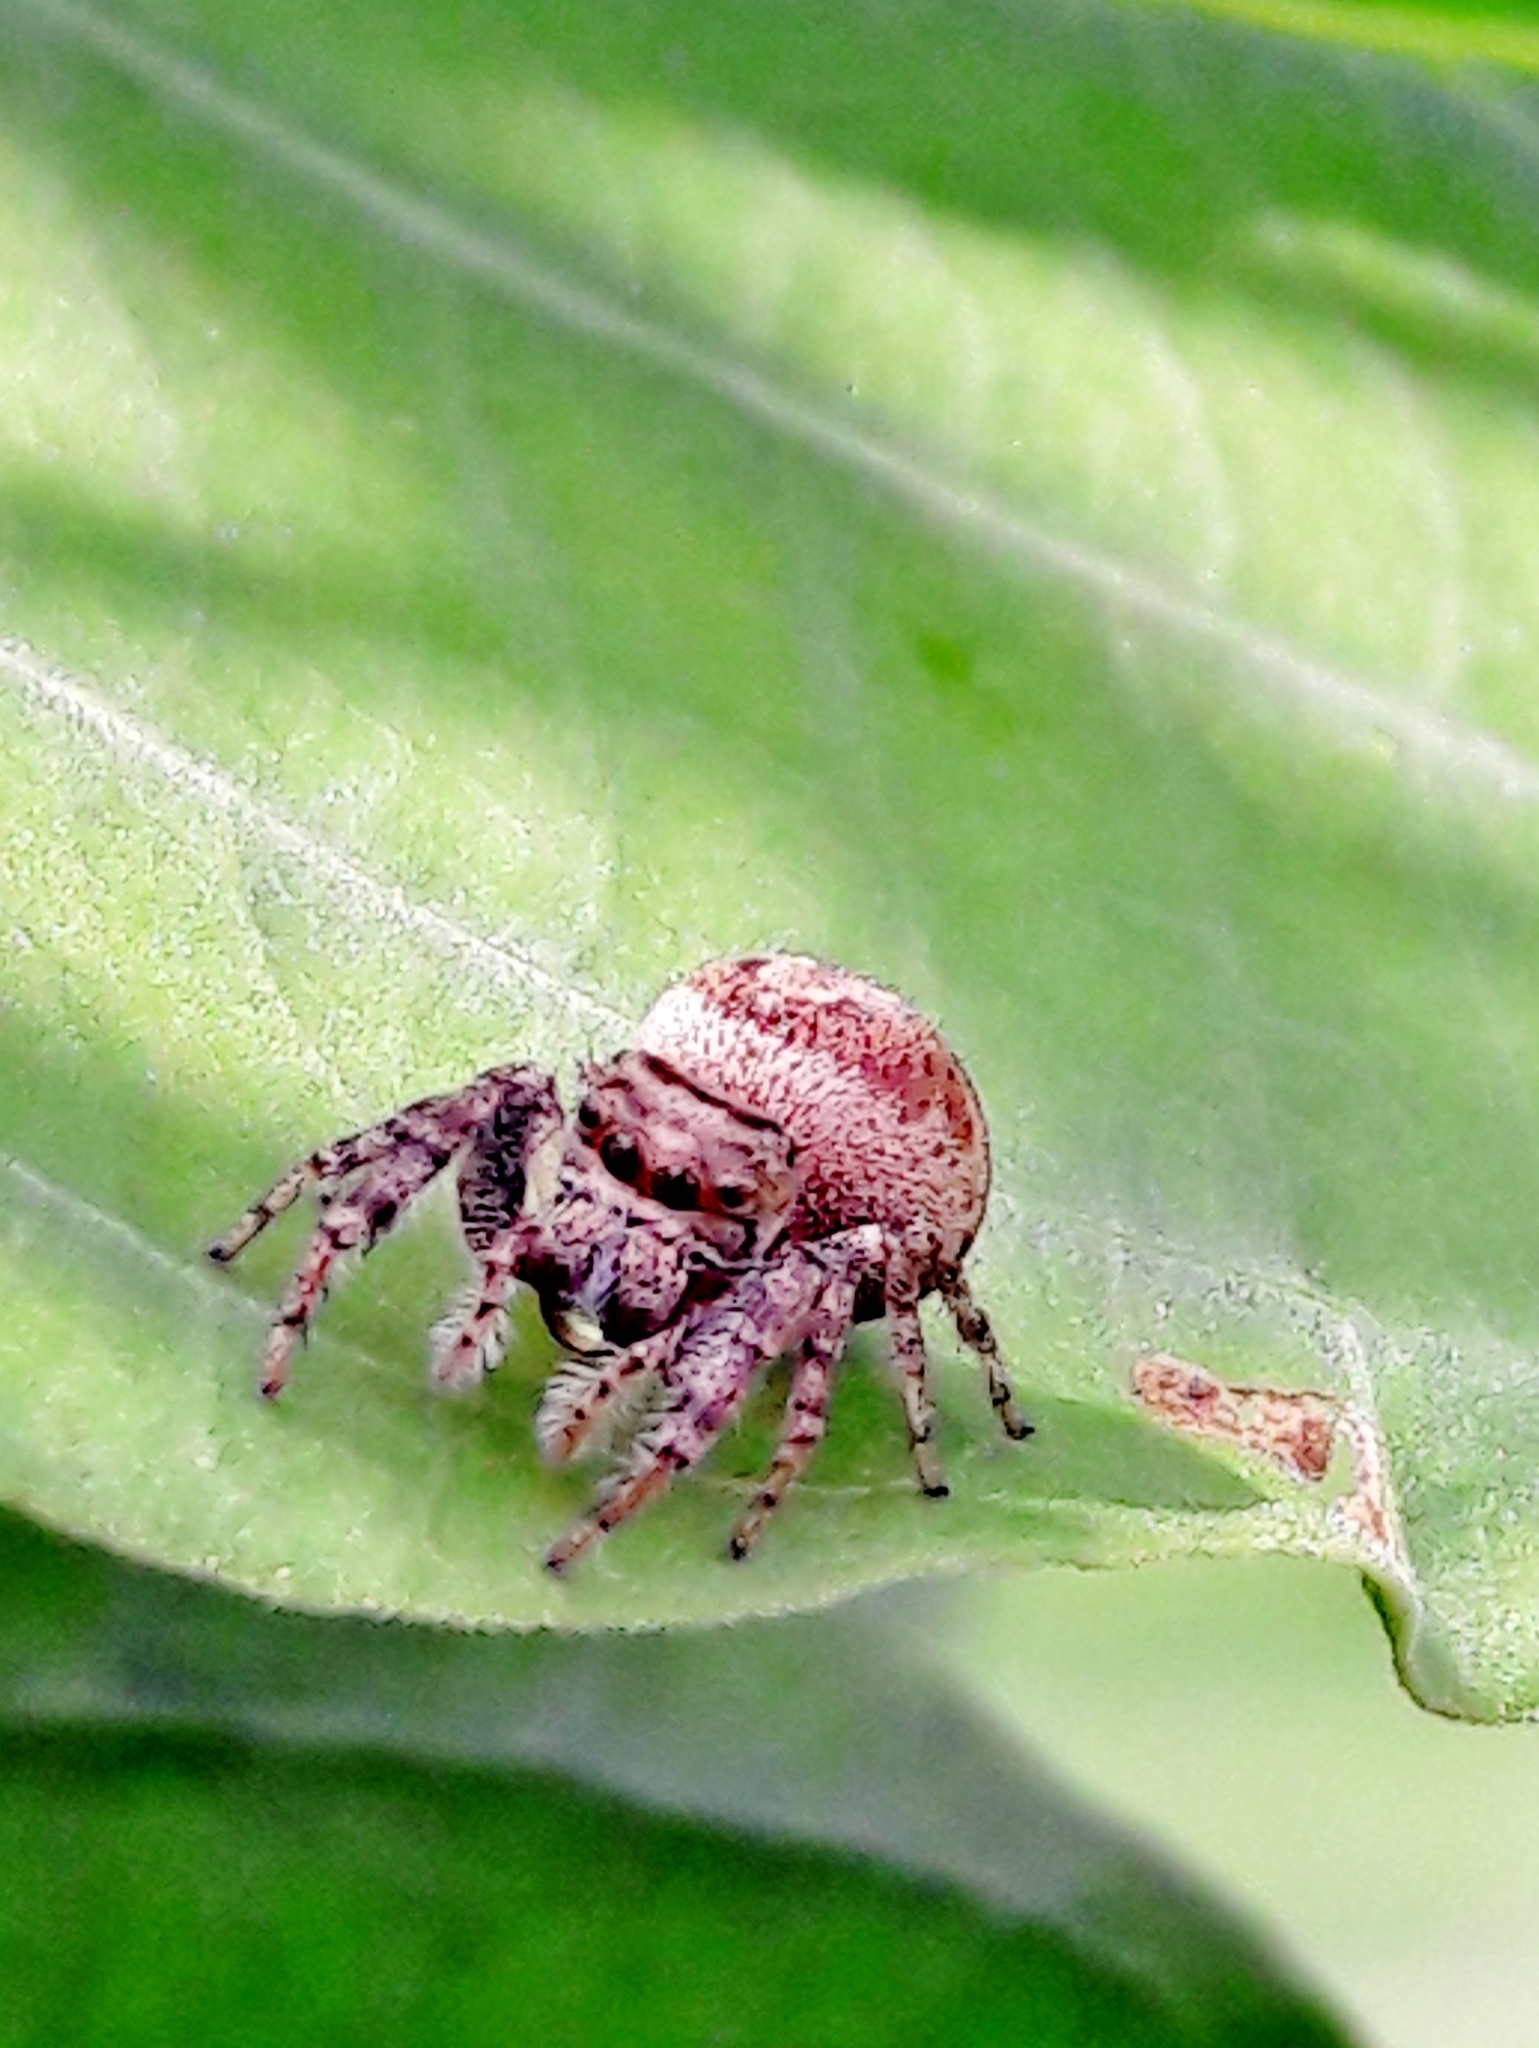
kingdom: Animalia
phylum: Arthropoda
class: Arachnida
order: Araneae
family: Salticidae
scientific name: Salticidae
